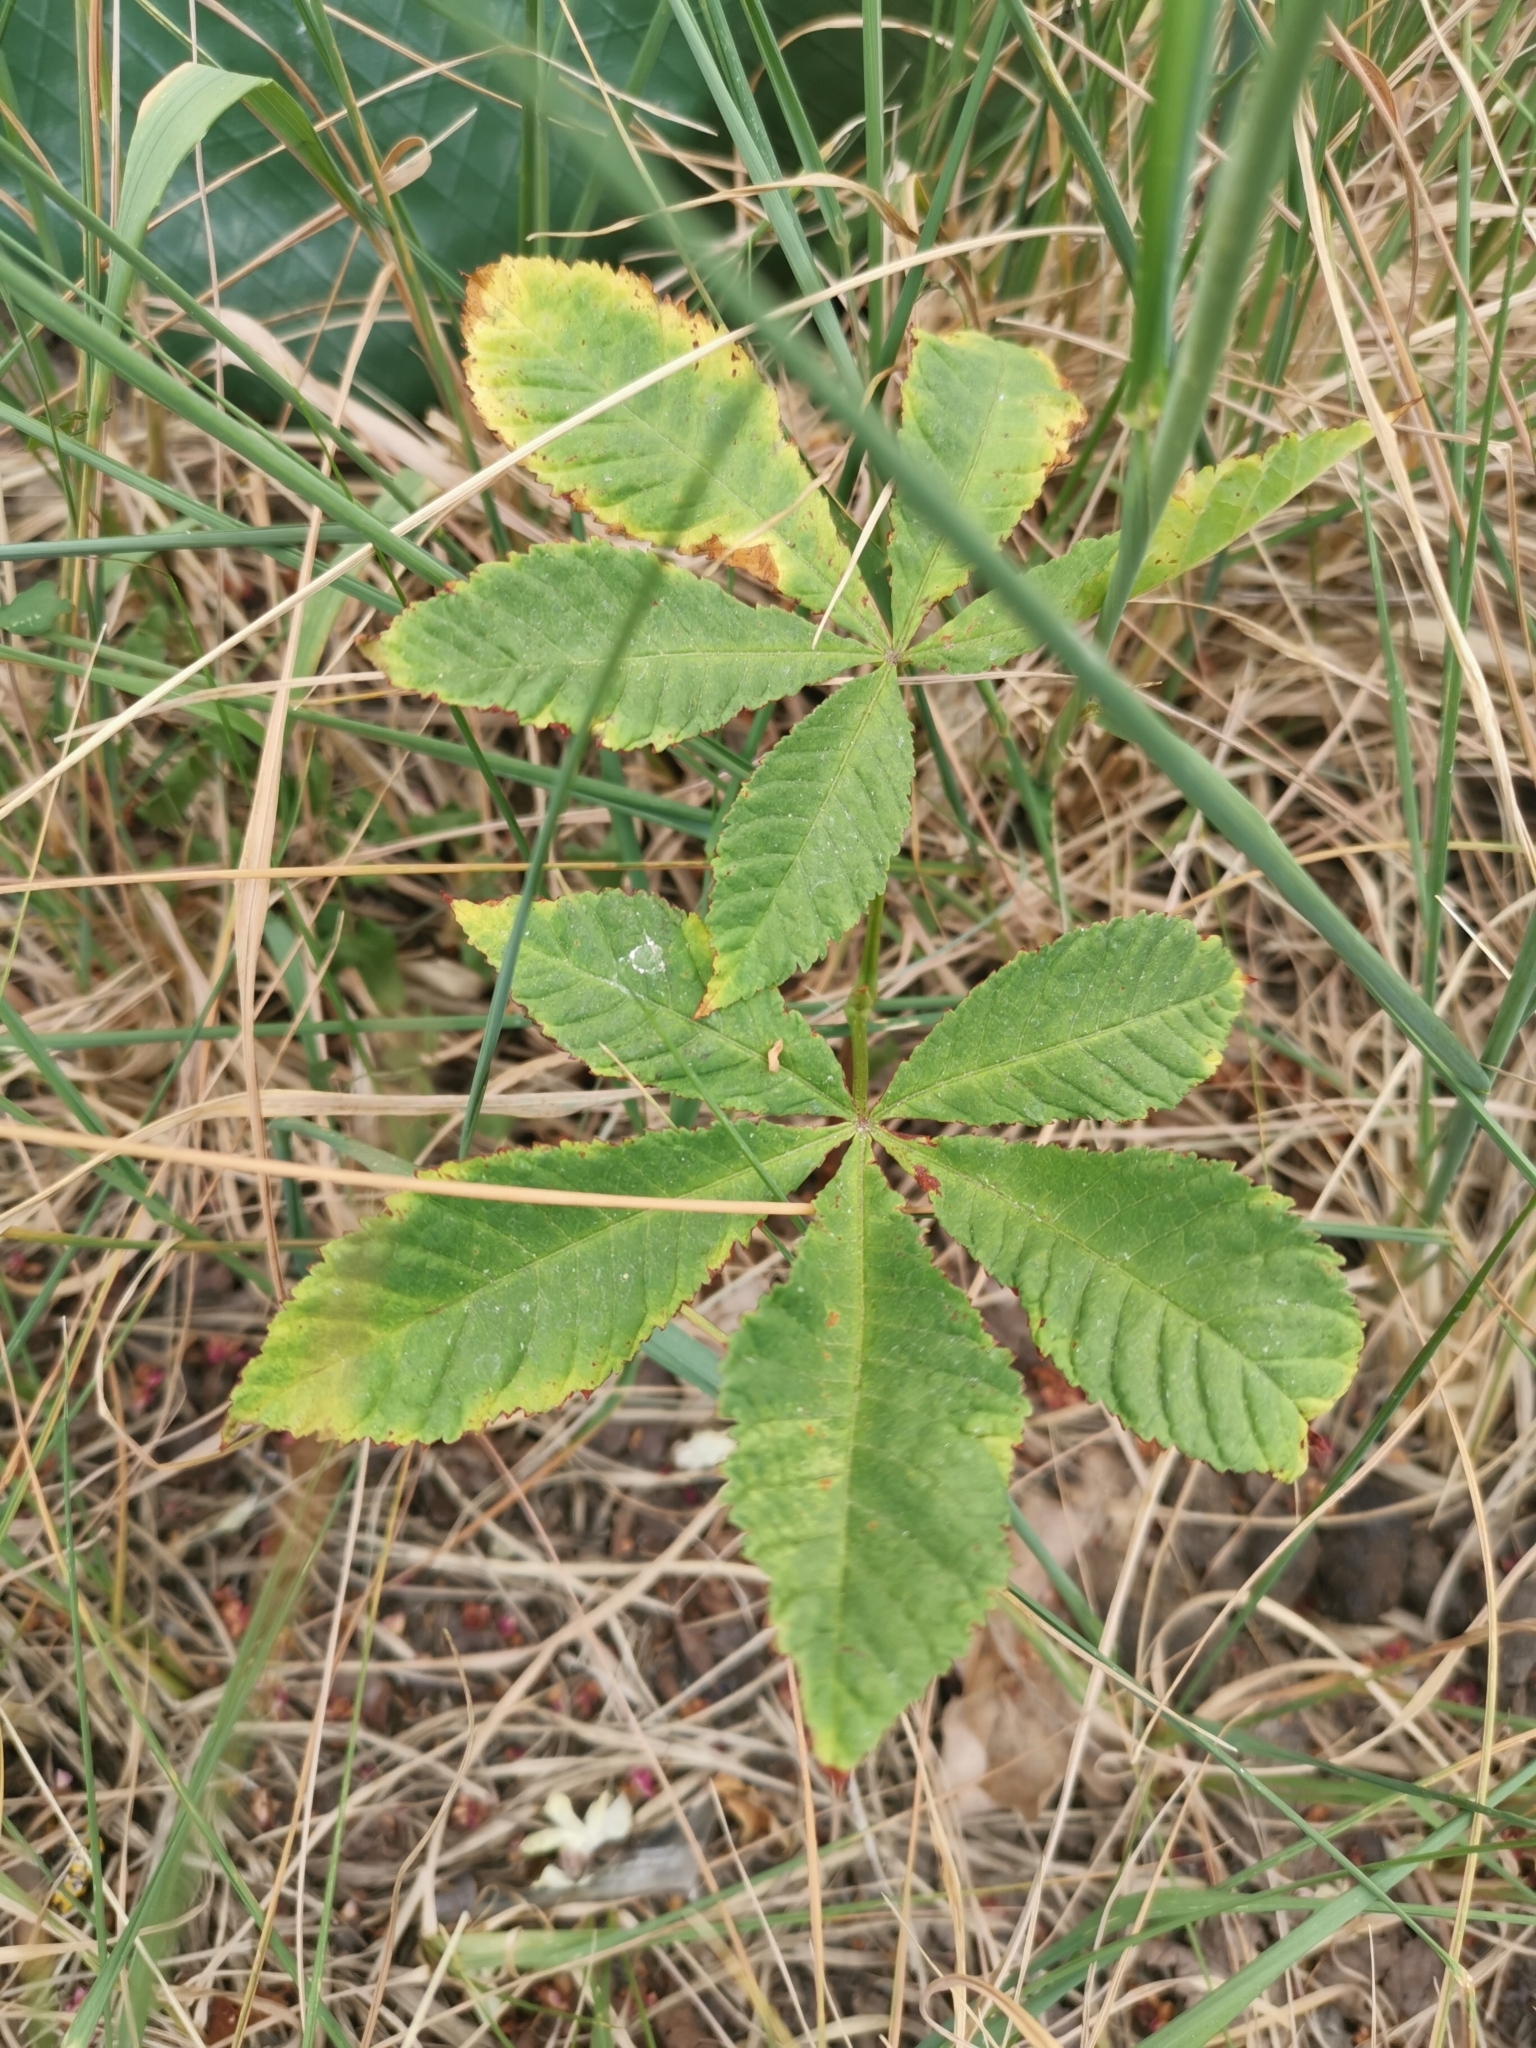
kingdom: Plantae
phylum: Tracheophyta
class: Magnoliopsida
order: Sapindales
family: Sapindaceae
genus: Aesculus
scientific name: Aesculus hippocastanum
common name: Horse-chestnut
